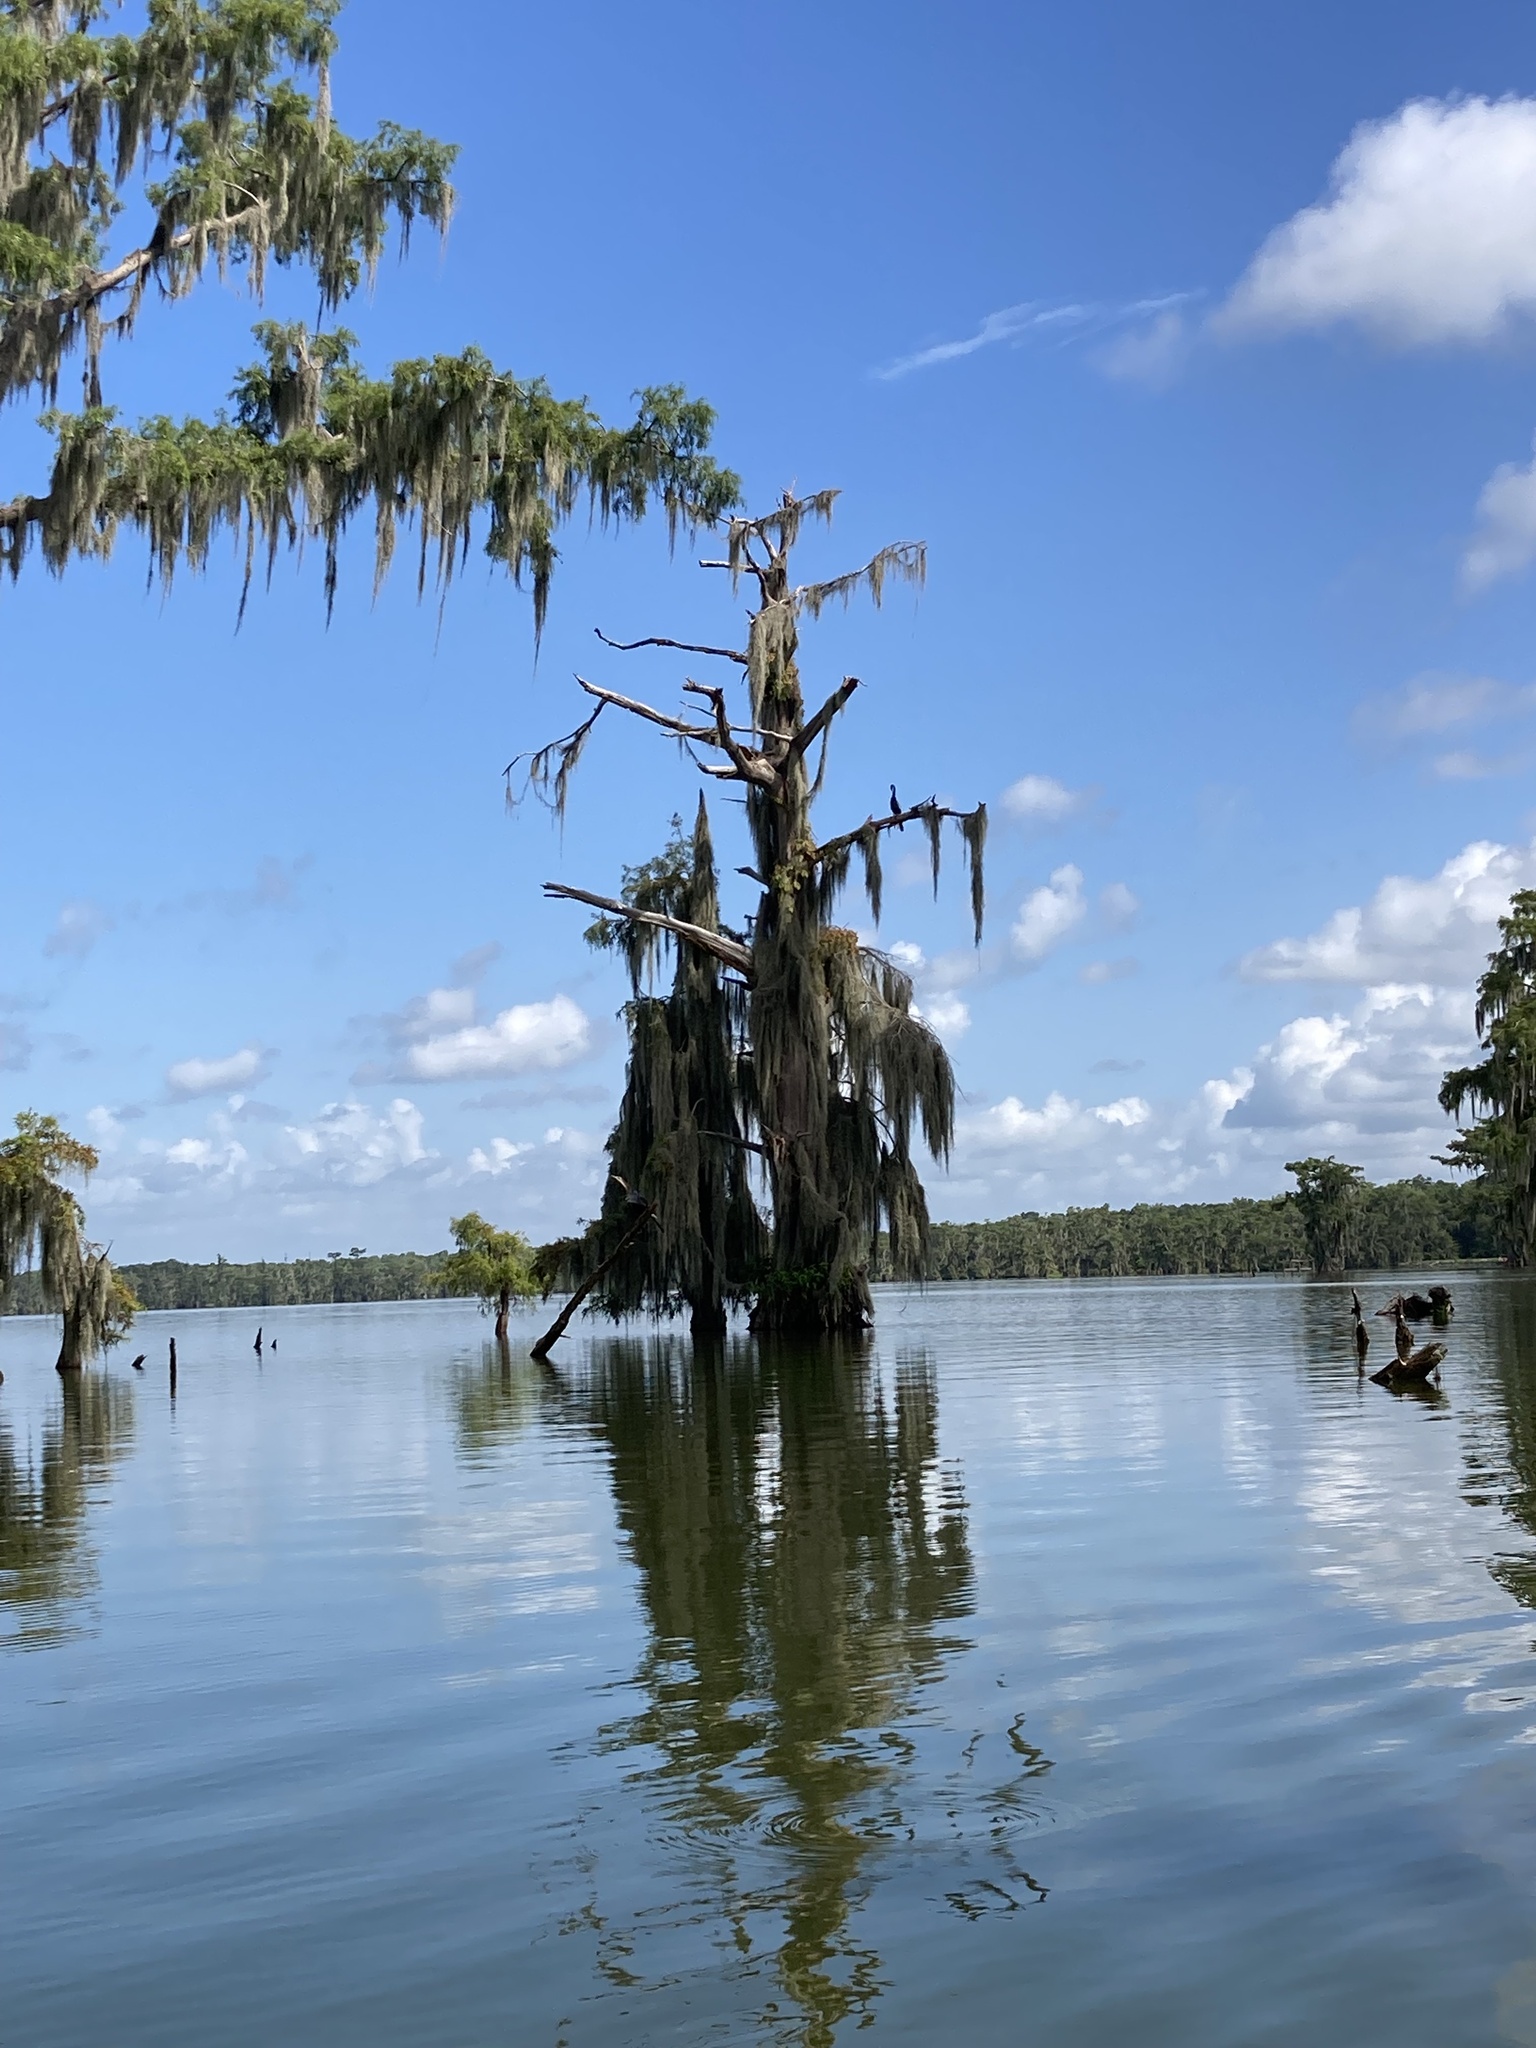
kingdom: Animalia
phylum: Chordata
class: Aves
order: Suliformes
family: Anhingidae
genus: Anhinga
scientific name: Anhinga anhinga
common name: Anhinga
